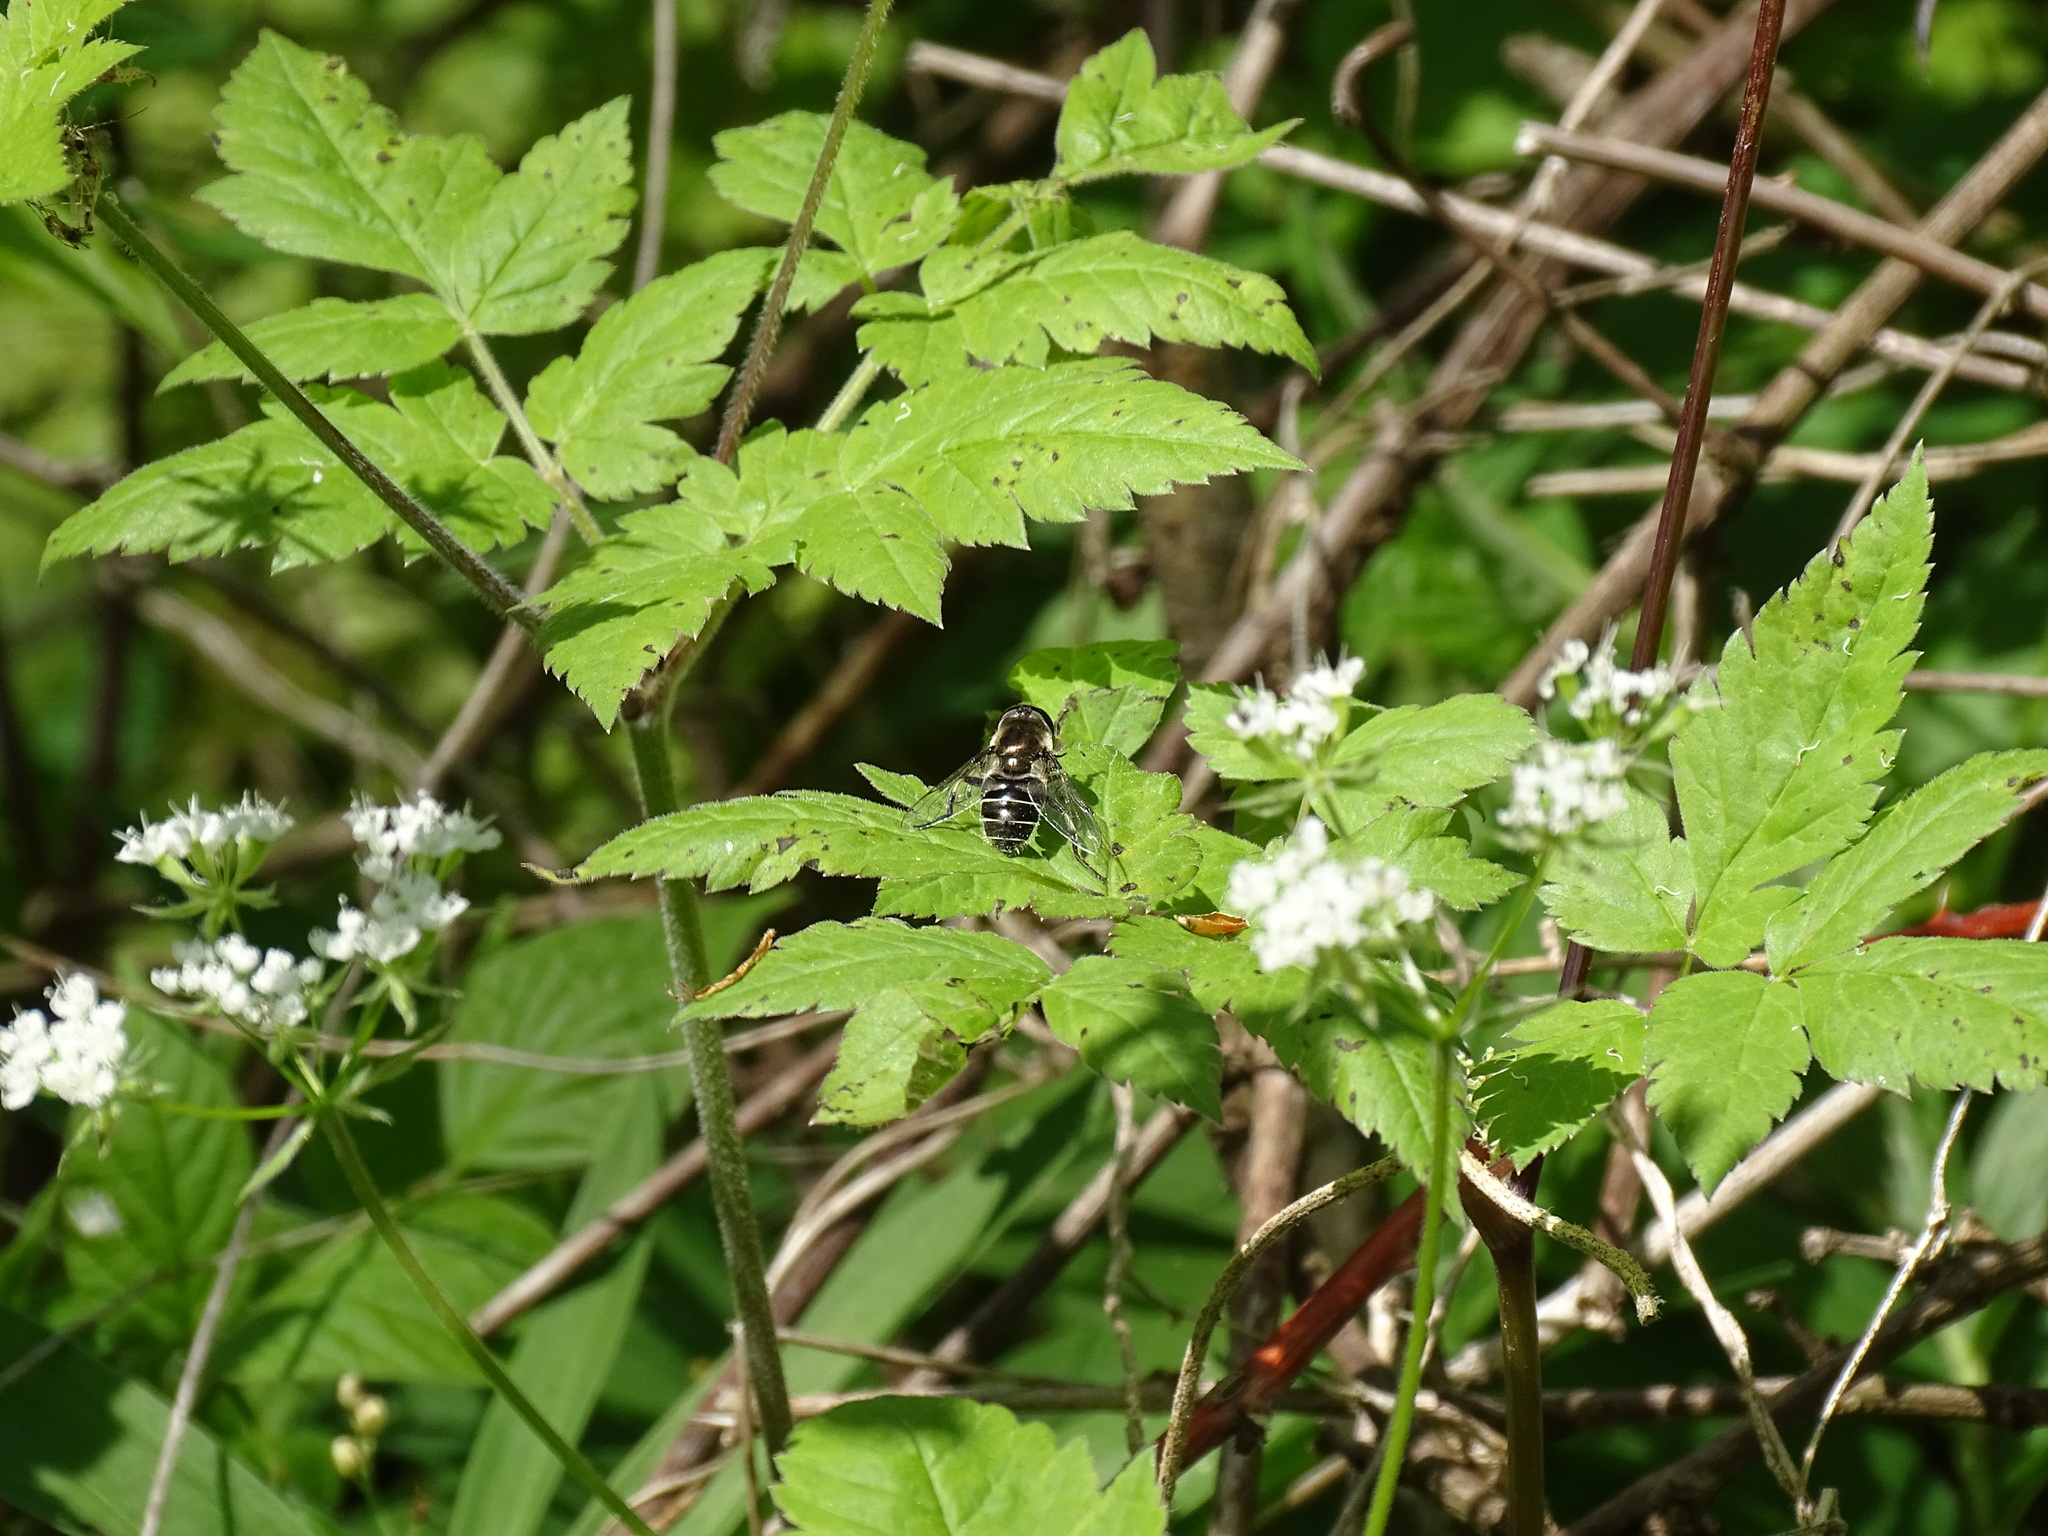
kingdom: Animalia
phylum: Arthropoda
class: Insecta
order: Diptera
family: Syrphidae
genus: Eristalis
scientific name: Eristalis dimidiata
